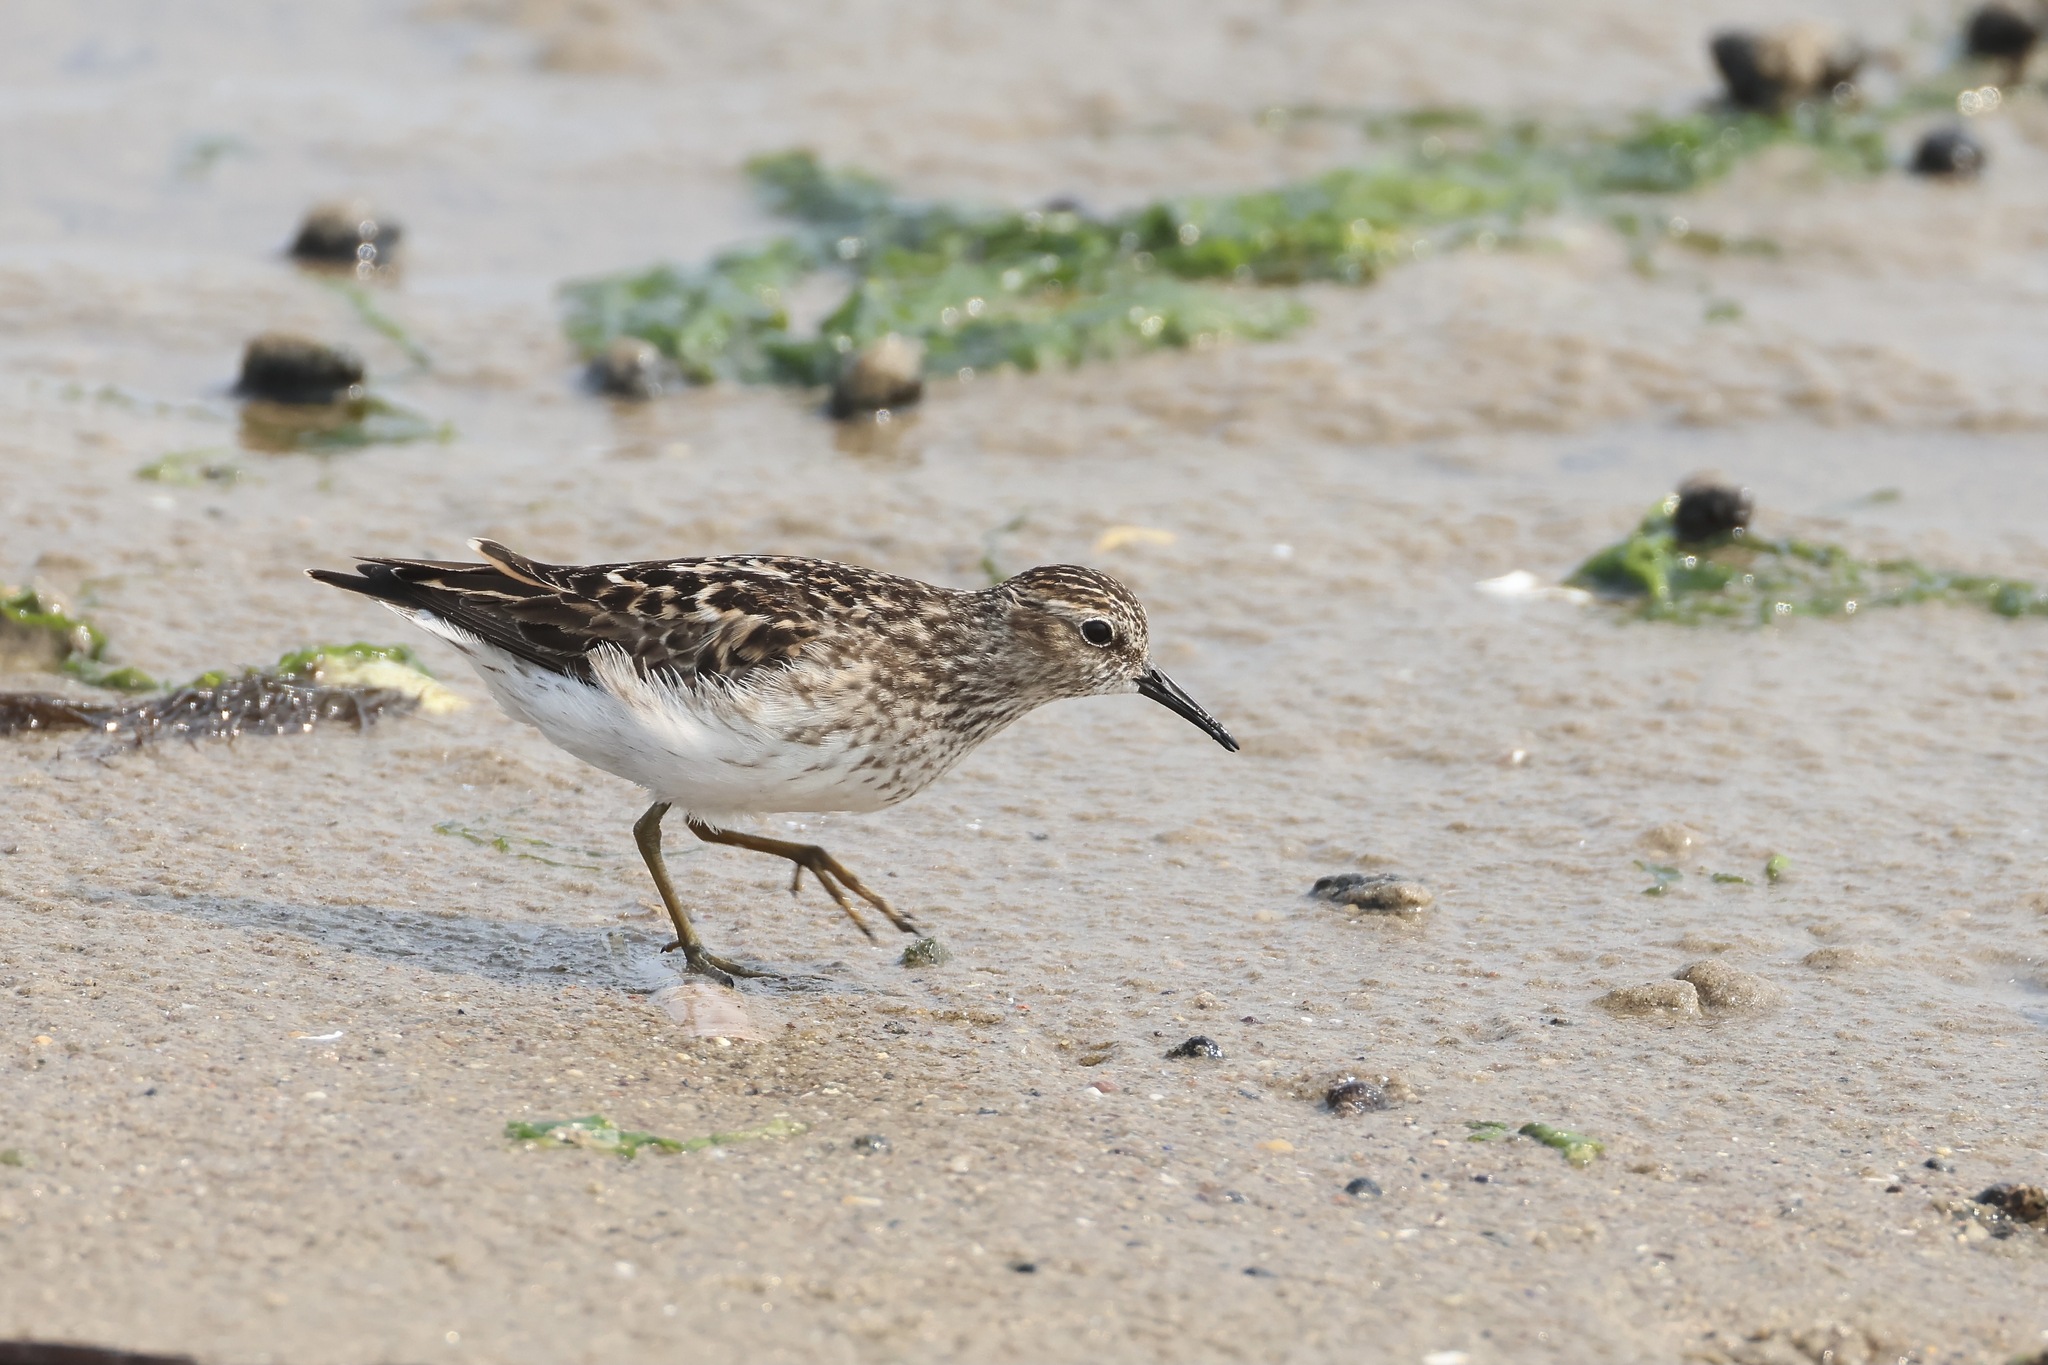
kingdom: Animalia
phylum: Chordata
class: Aves
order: Charadriiformes
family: Scolopacidae
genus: Calidris
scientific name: Calidris minutilla
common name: Least sandpiper
